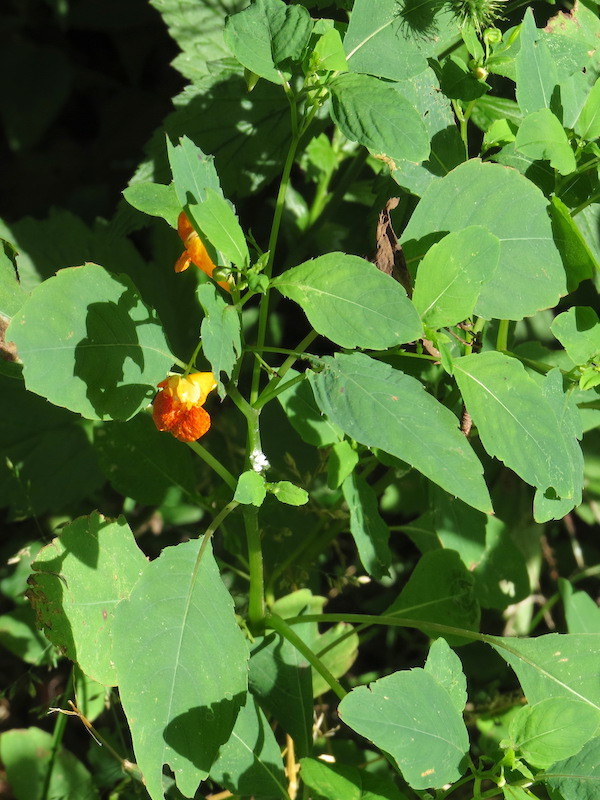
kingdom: Plantae
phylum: Tracheophyta
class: Magnoliopsida
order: Ericales
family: Balsaminaceae
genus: Impatiens
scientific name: Impatiens capensis
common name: Orange balsam
